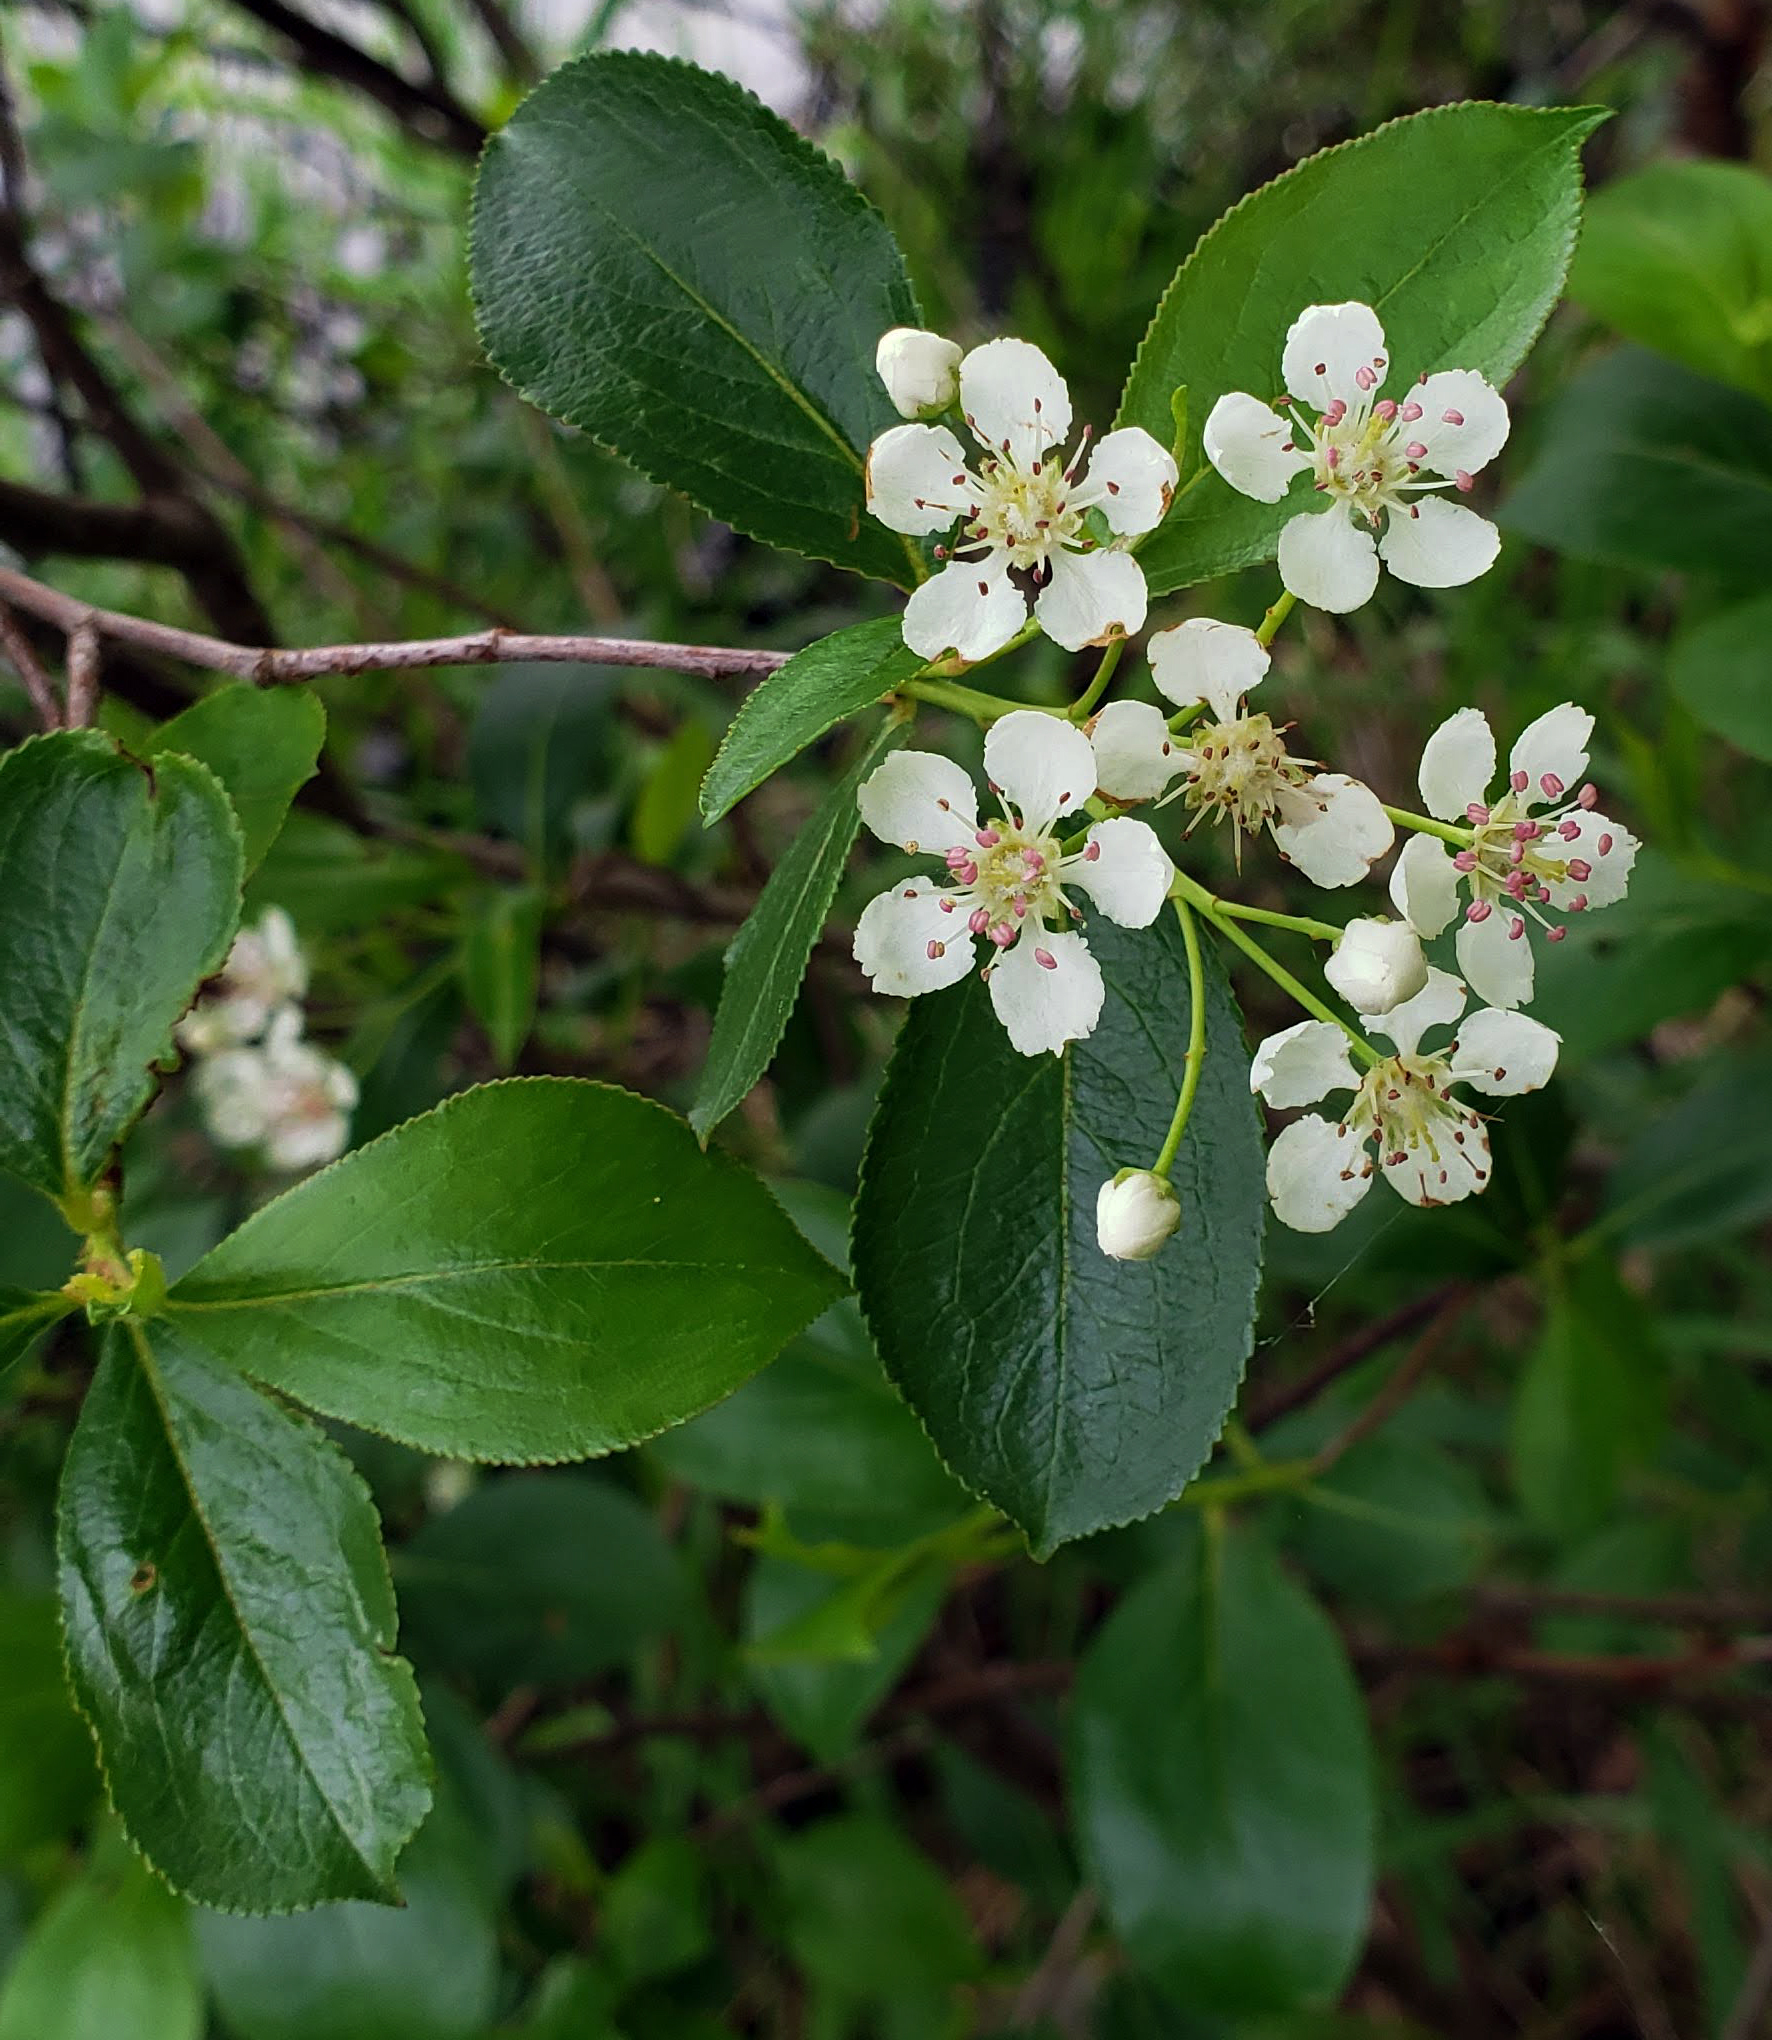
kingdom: Plantae
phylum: Tracheophyta
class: Magnoliopsida
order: Rosales
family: Rosaceae
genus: Aronia
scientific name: Aronia melanocarpa
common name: Black chokeberry
